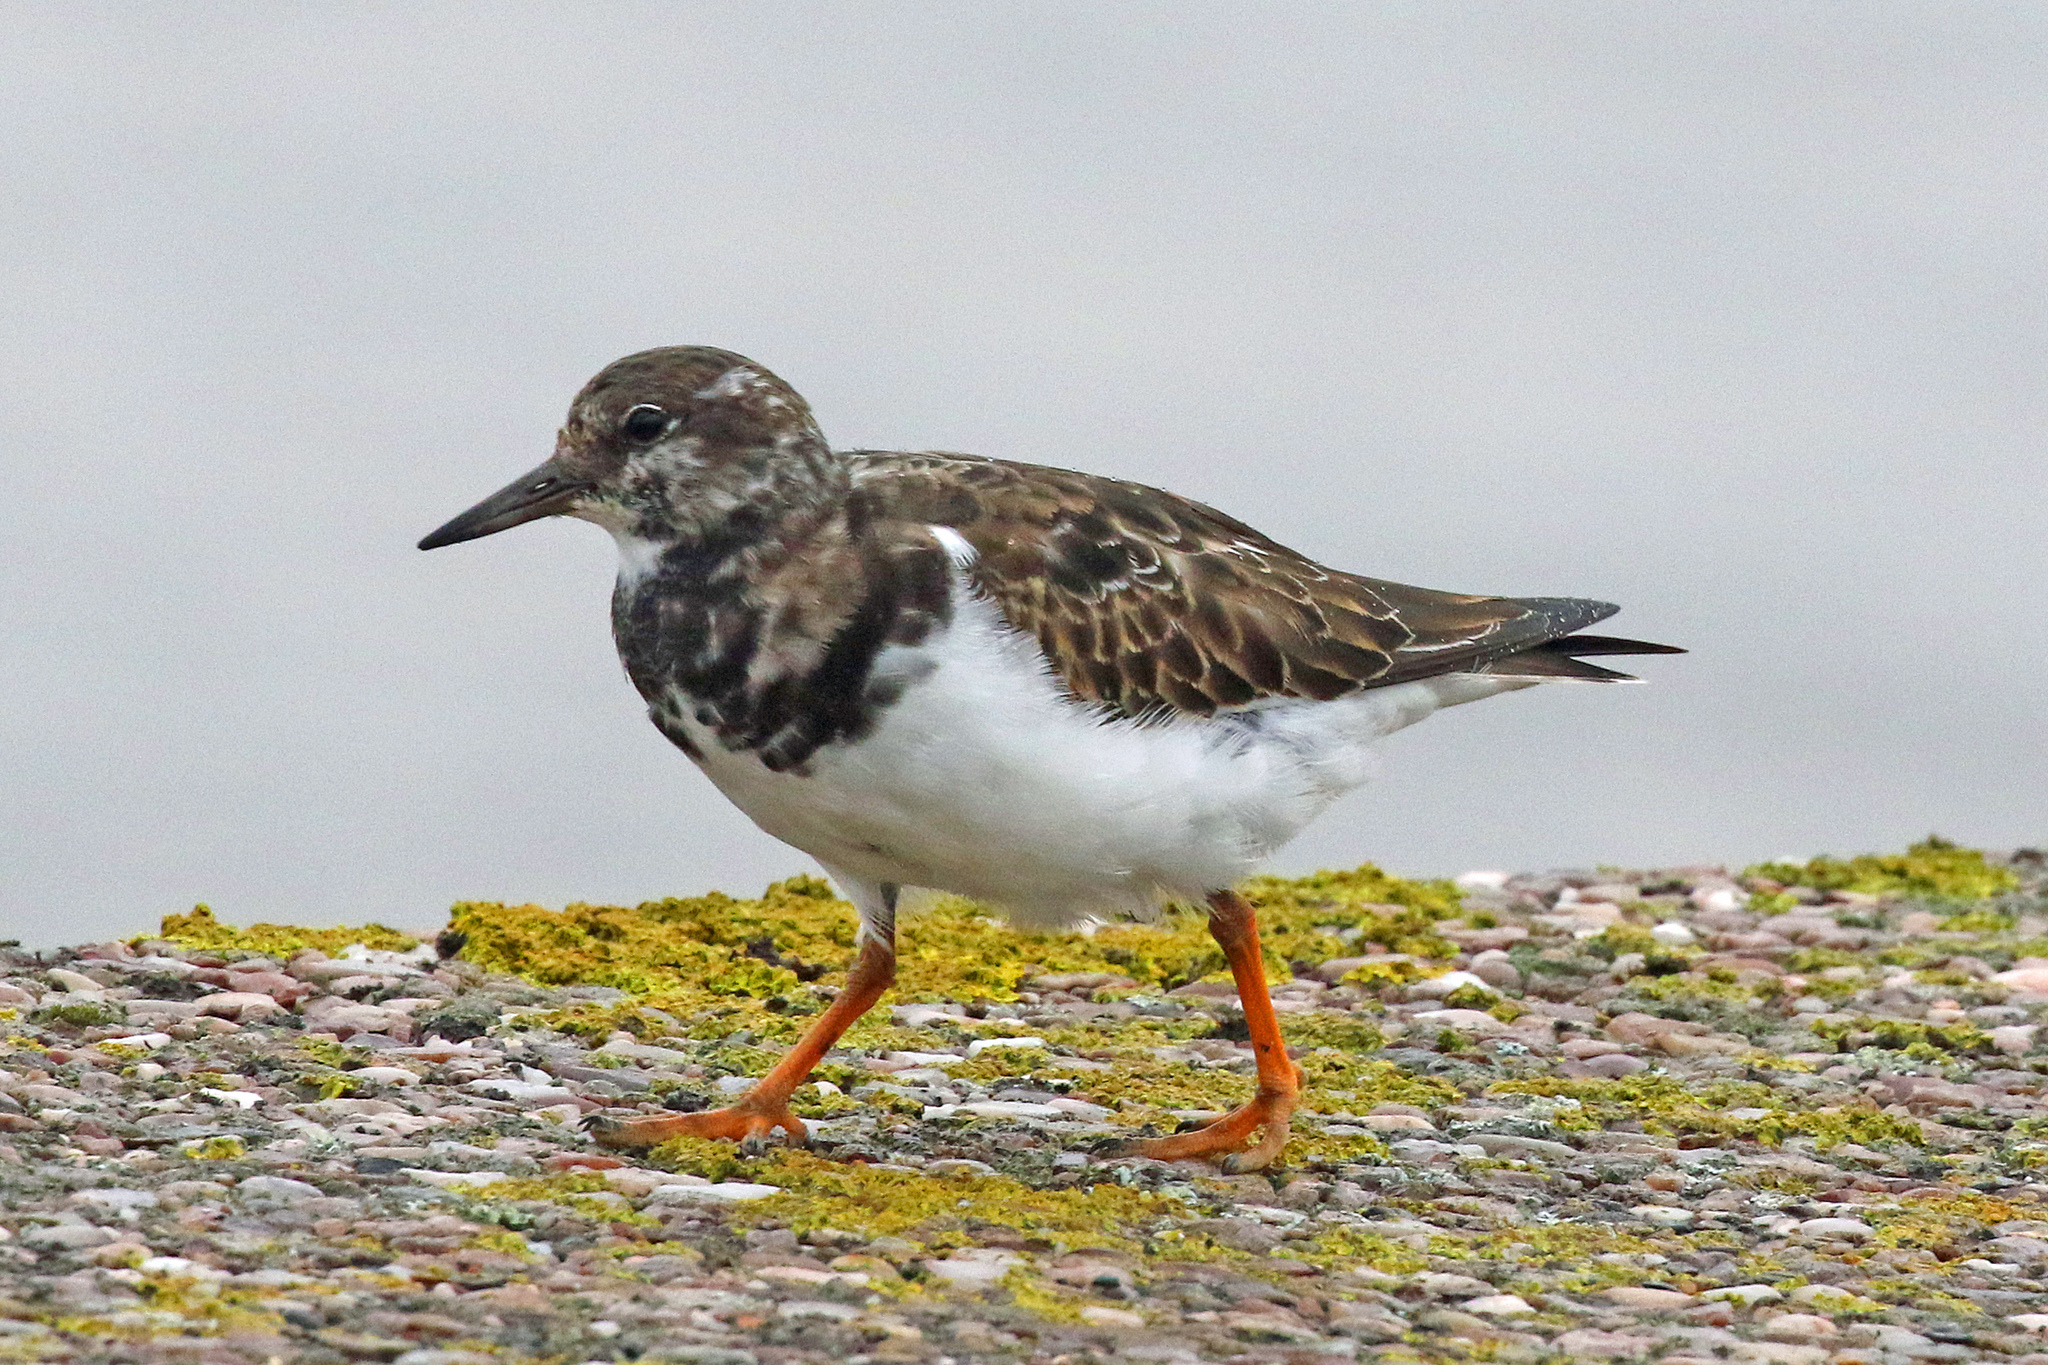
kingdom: Animalia
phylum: Chordata
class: Aves
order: Charadriiformes
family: Scolopacidae
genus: Arenaria
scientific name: Arenaria interpres
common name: Ruddy turnstone
